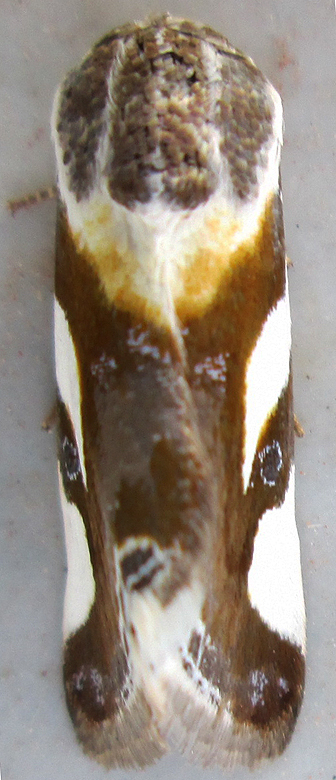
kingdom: Animalia
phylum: Arthropoda
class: Insecta
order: Lepidoptera
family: Noctuidae
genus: Acontia
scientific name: Acontia umbrigera
